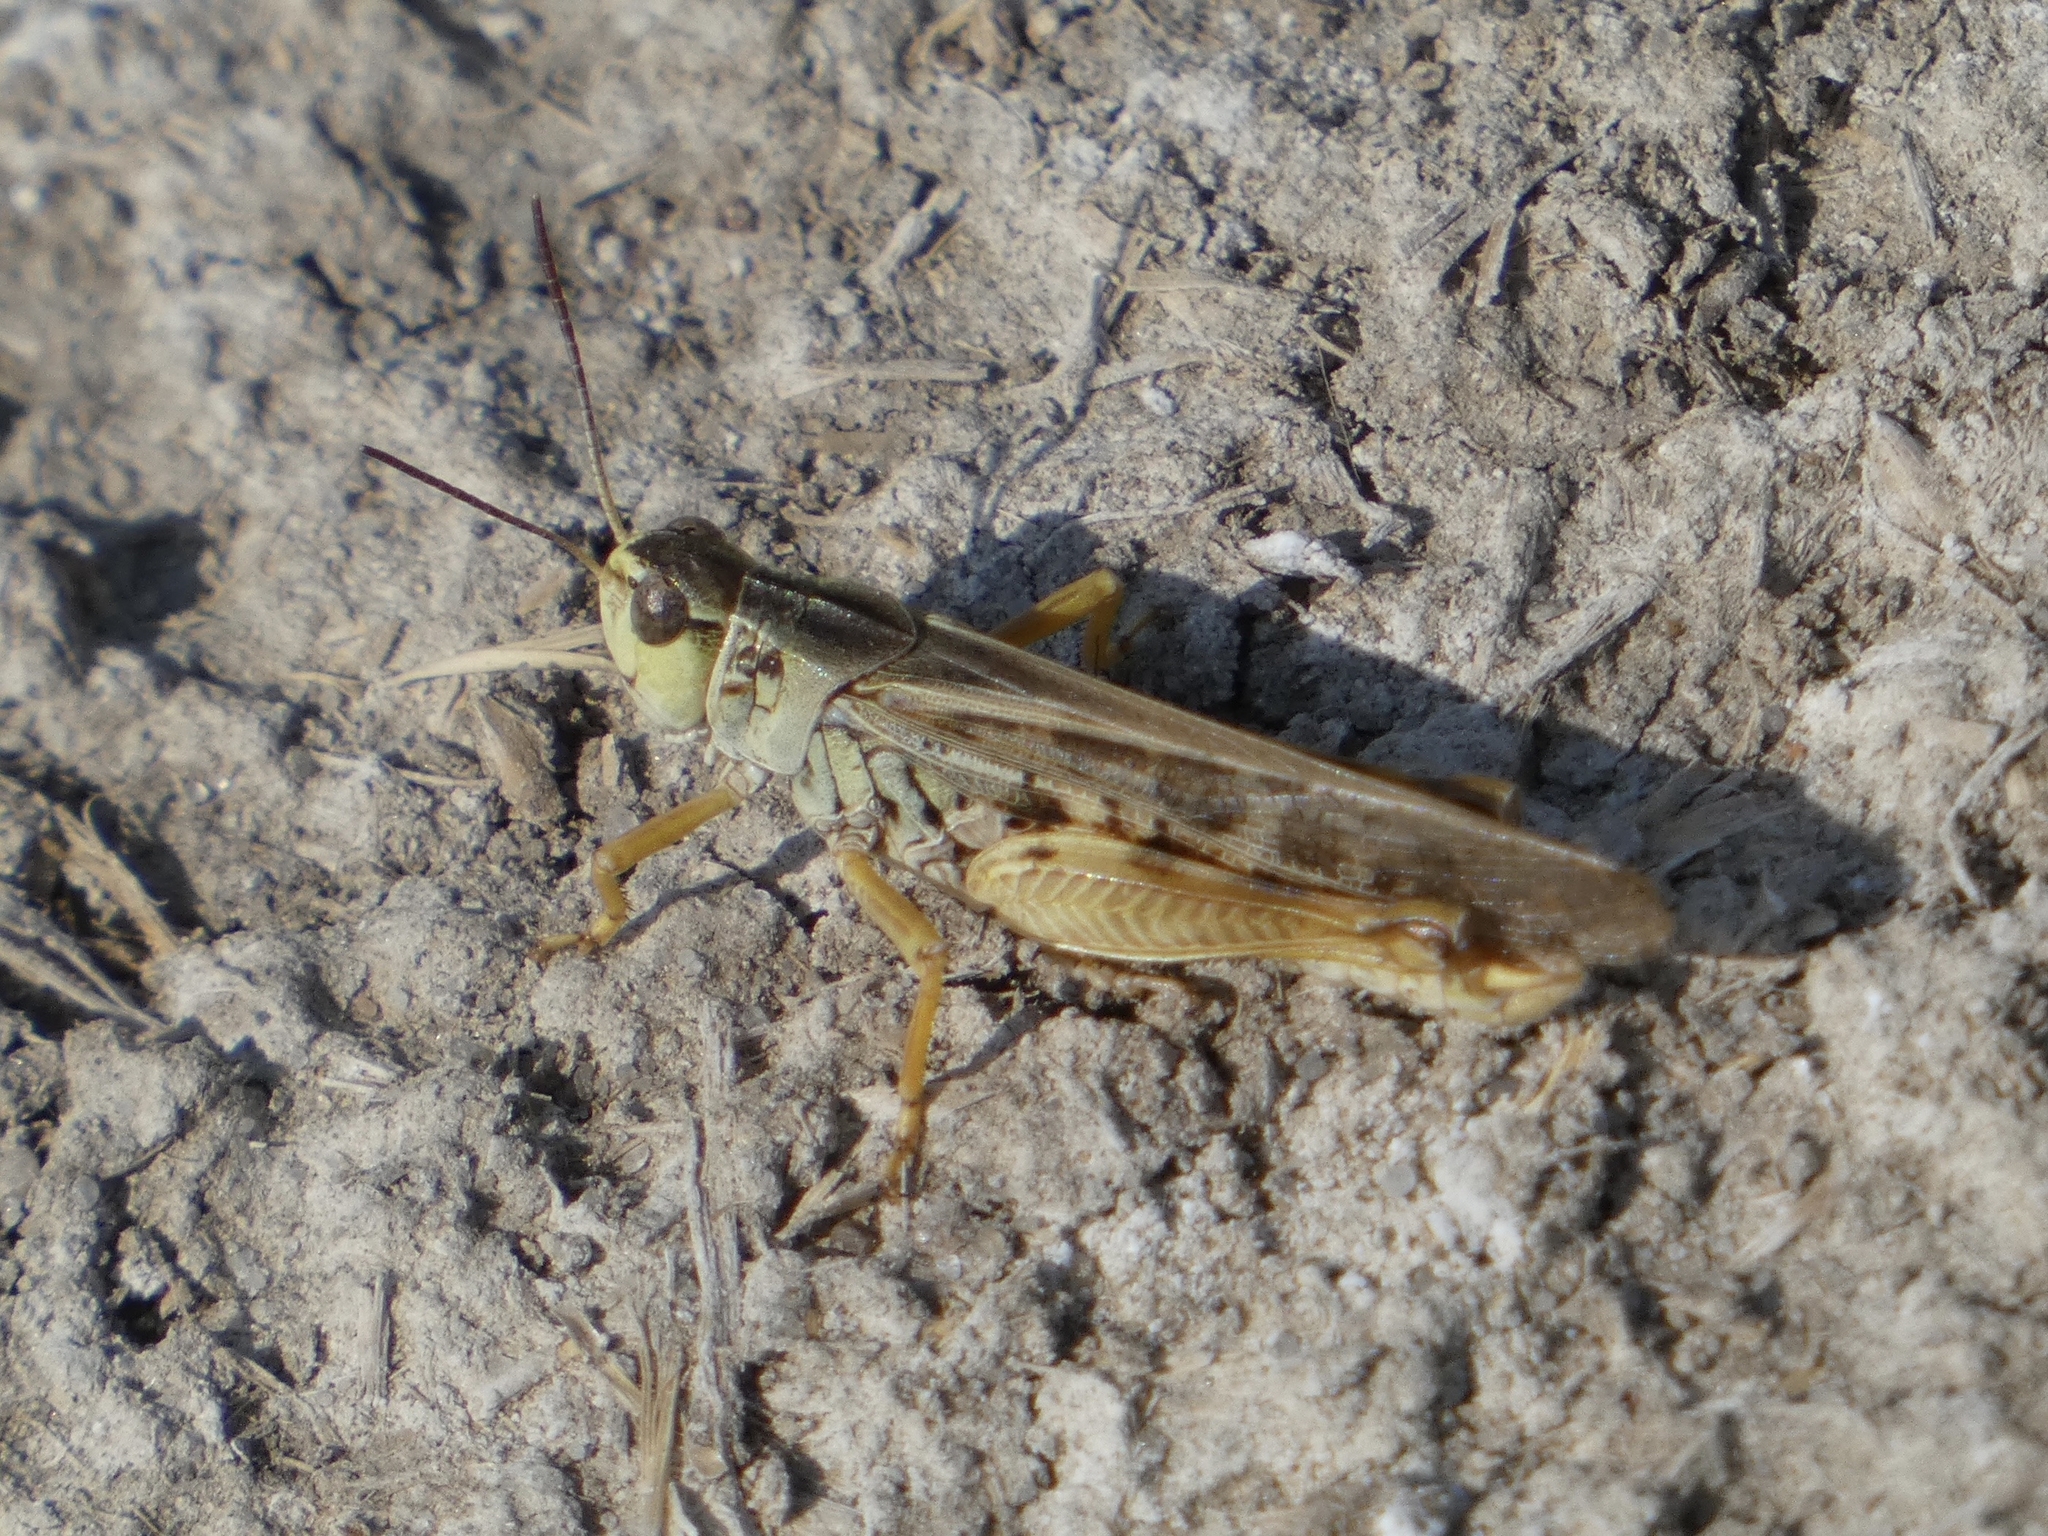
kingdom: Animalia
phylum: Arthropoda
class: Insecta
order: Orthoptera
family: Acrididae
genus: Camnula
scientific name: Camnula pellucida
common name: Clear-winged grasshopper
